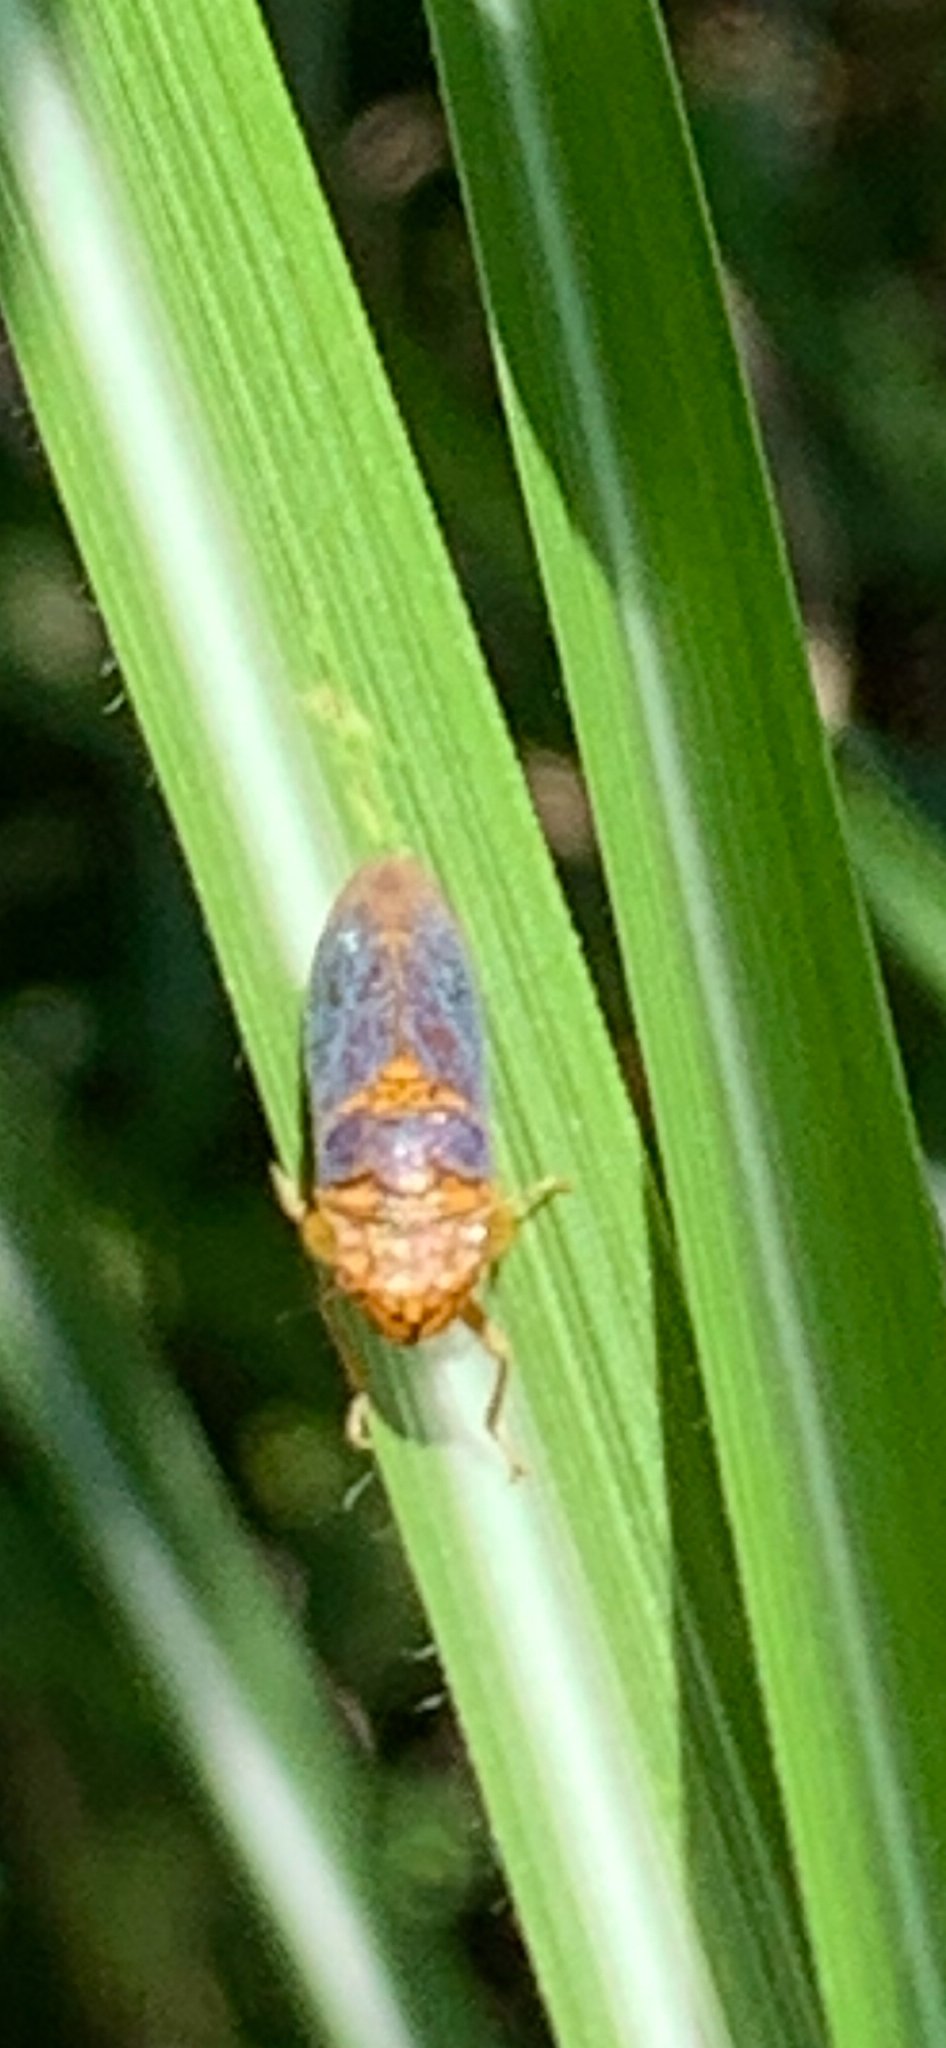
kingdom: Animalia
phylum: Arthropoda
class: Insecta
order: Hemiptera
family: Cicadellidae
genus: Oncometopia
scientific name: Oncometopia orbona
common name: Broad-headed sharpshooter
